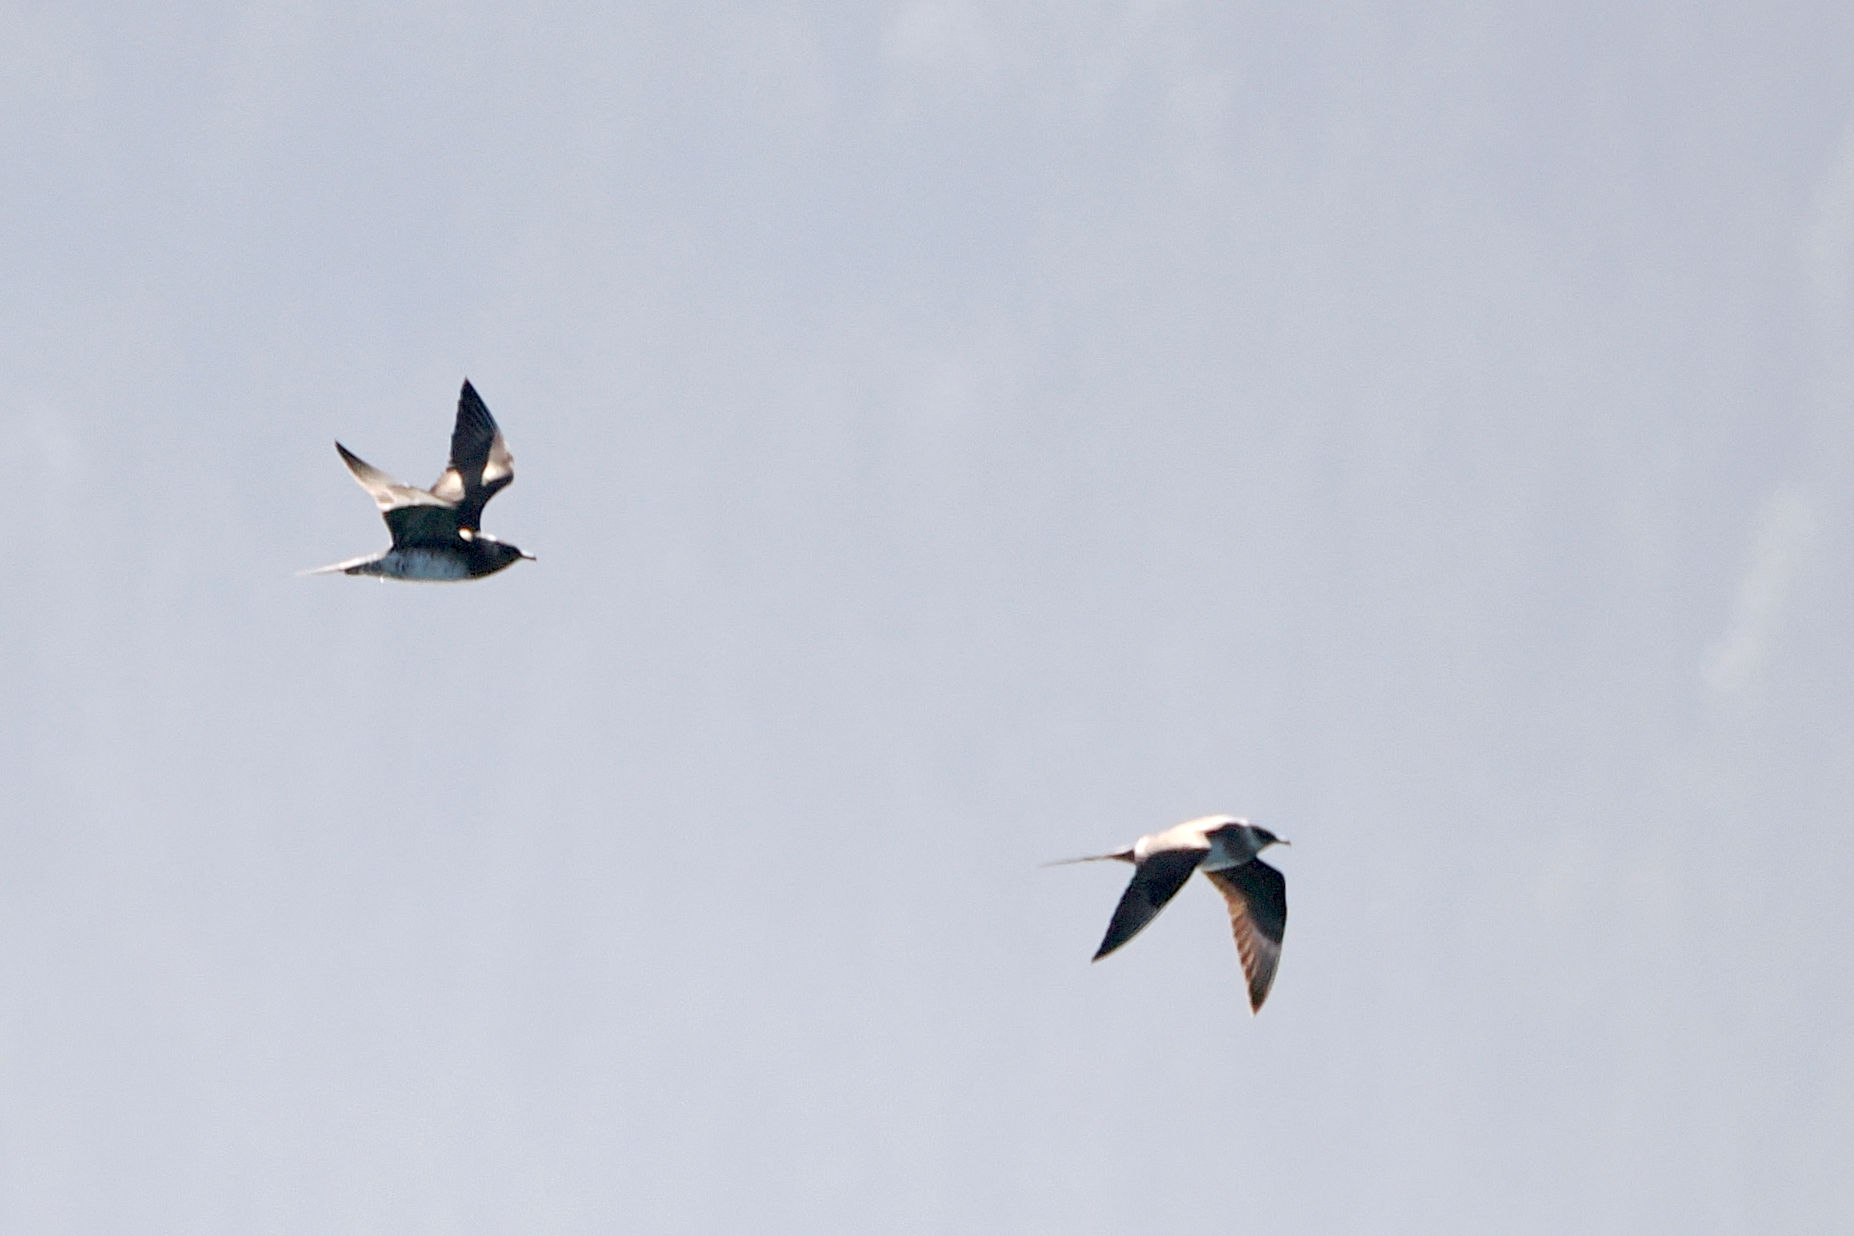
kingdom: Animalia
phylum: Chordata
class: Aves
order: Charadriiformes
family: Stercorariidae
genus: Stercorarius
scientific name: Stercorarius parasiticus
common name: Parasitic jaeger
